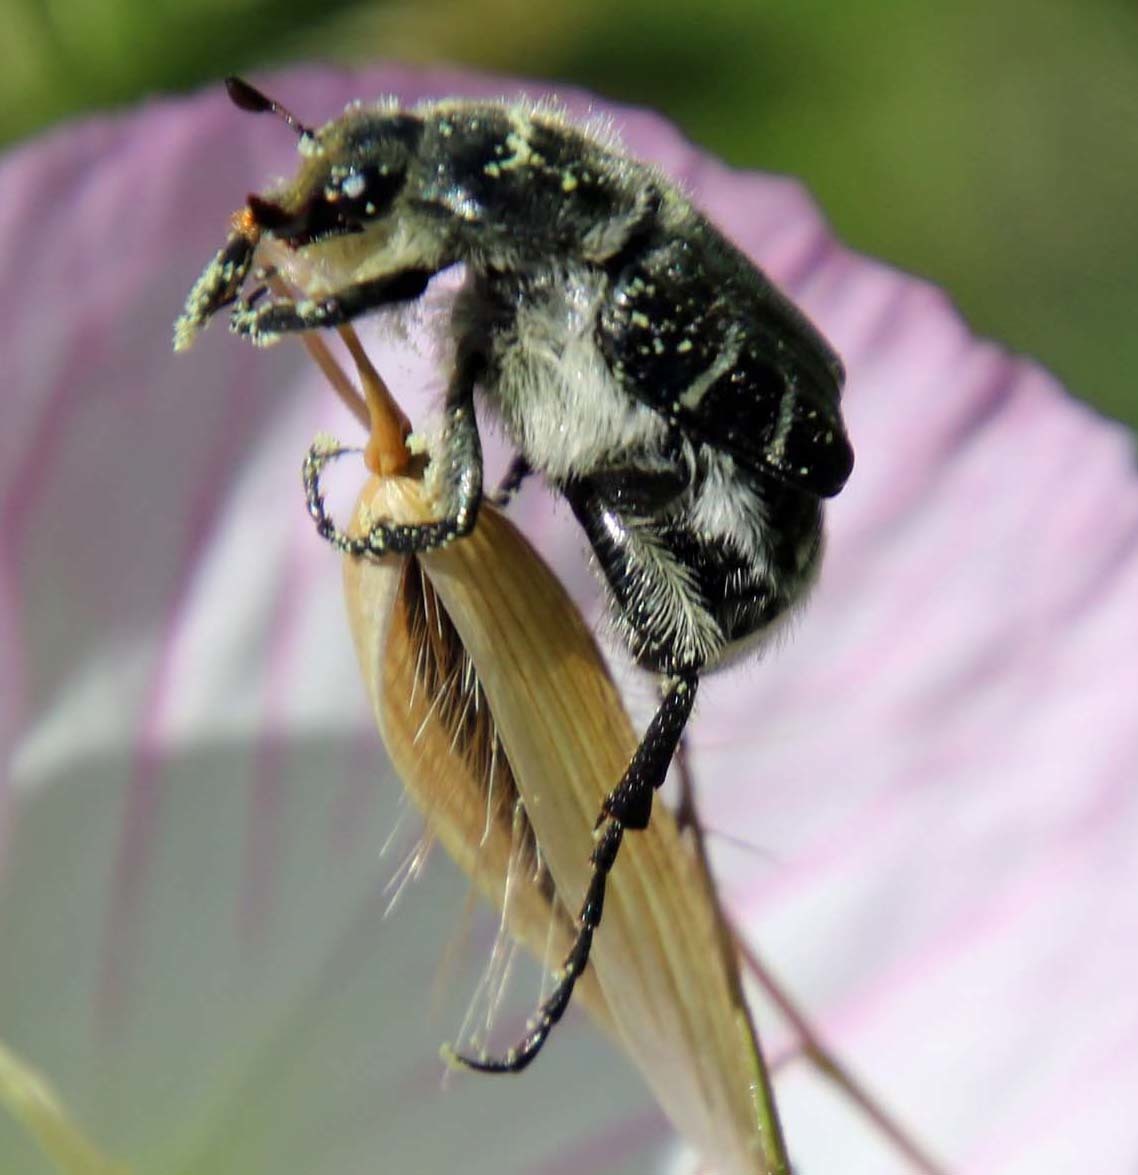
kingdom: Animalia
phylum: Arthropoda
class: Insecta
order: Coleoptera
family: Scarabaeidae
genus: Trichiotinus
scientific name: Trichiotinus texanus
